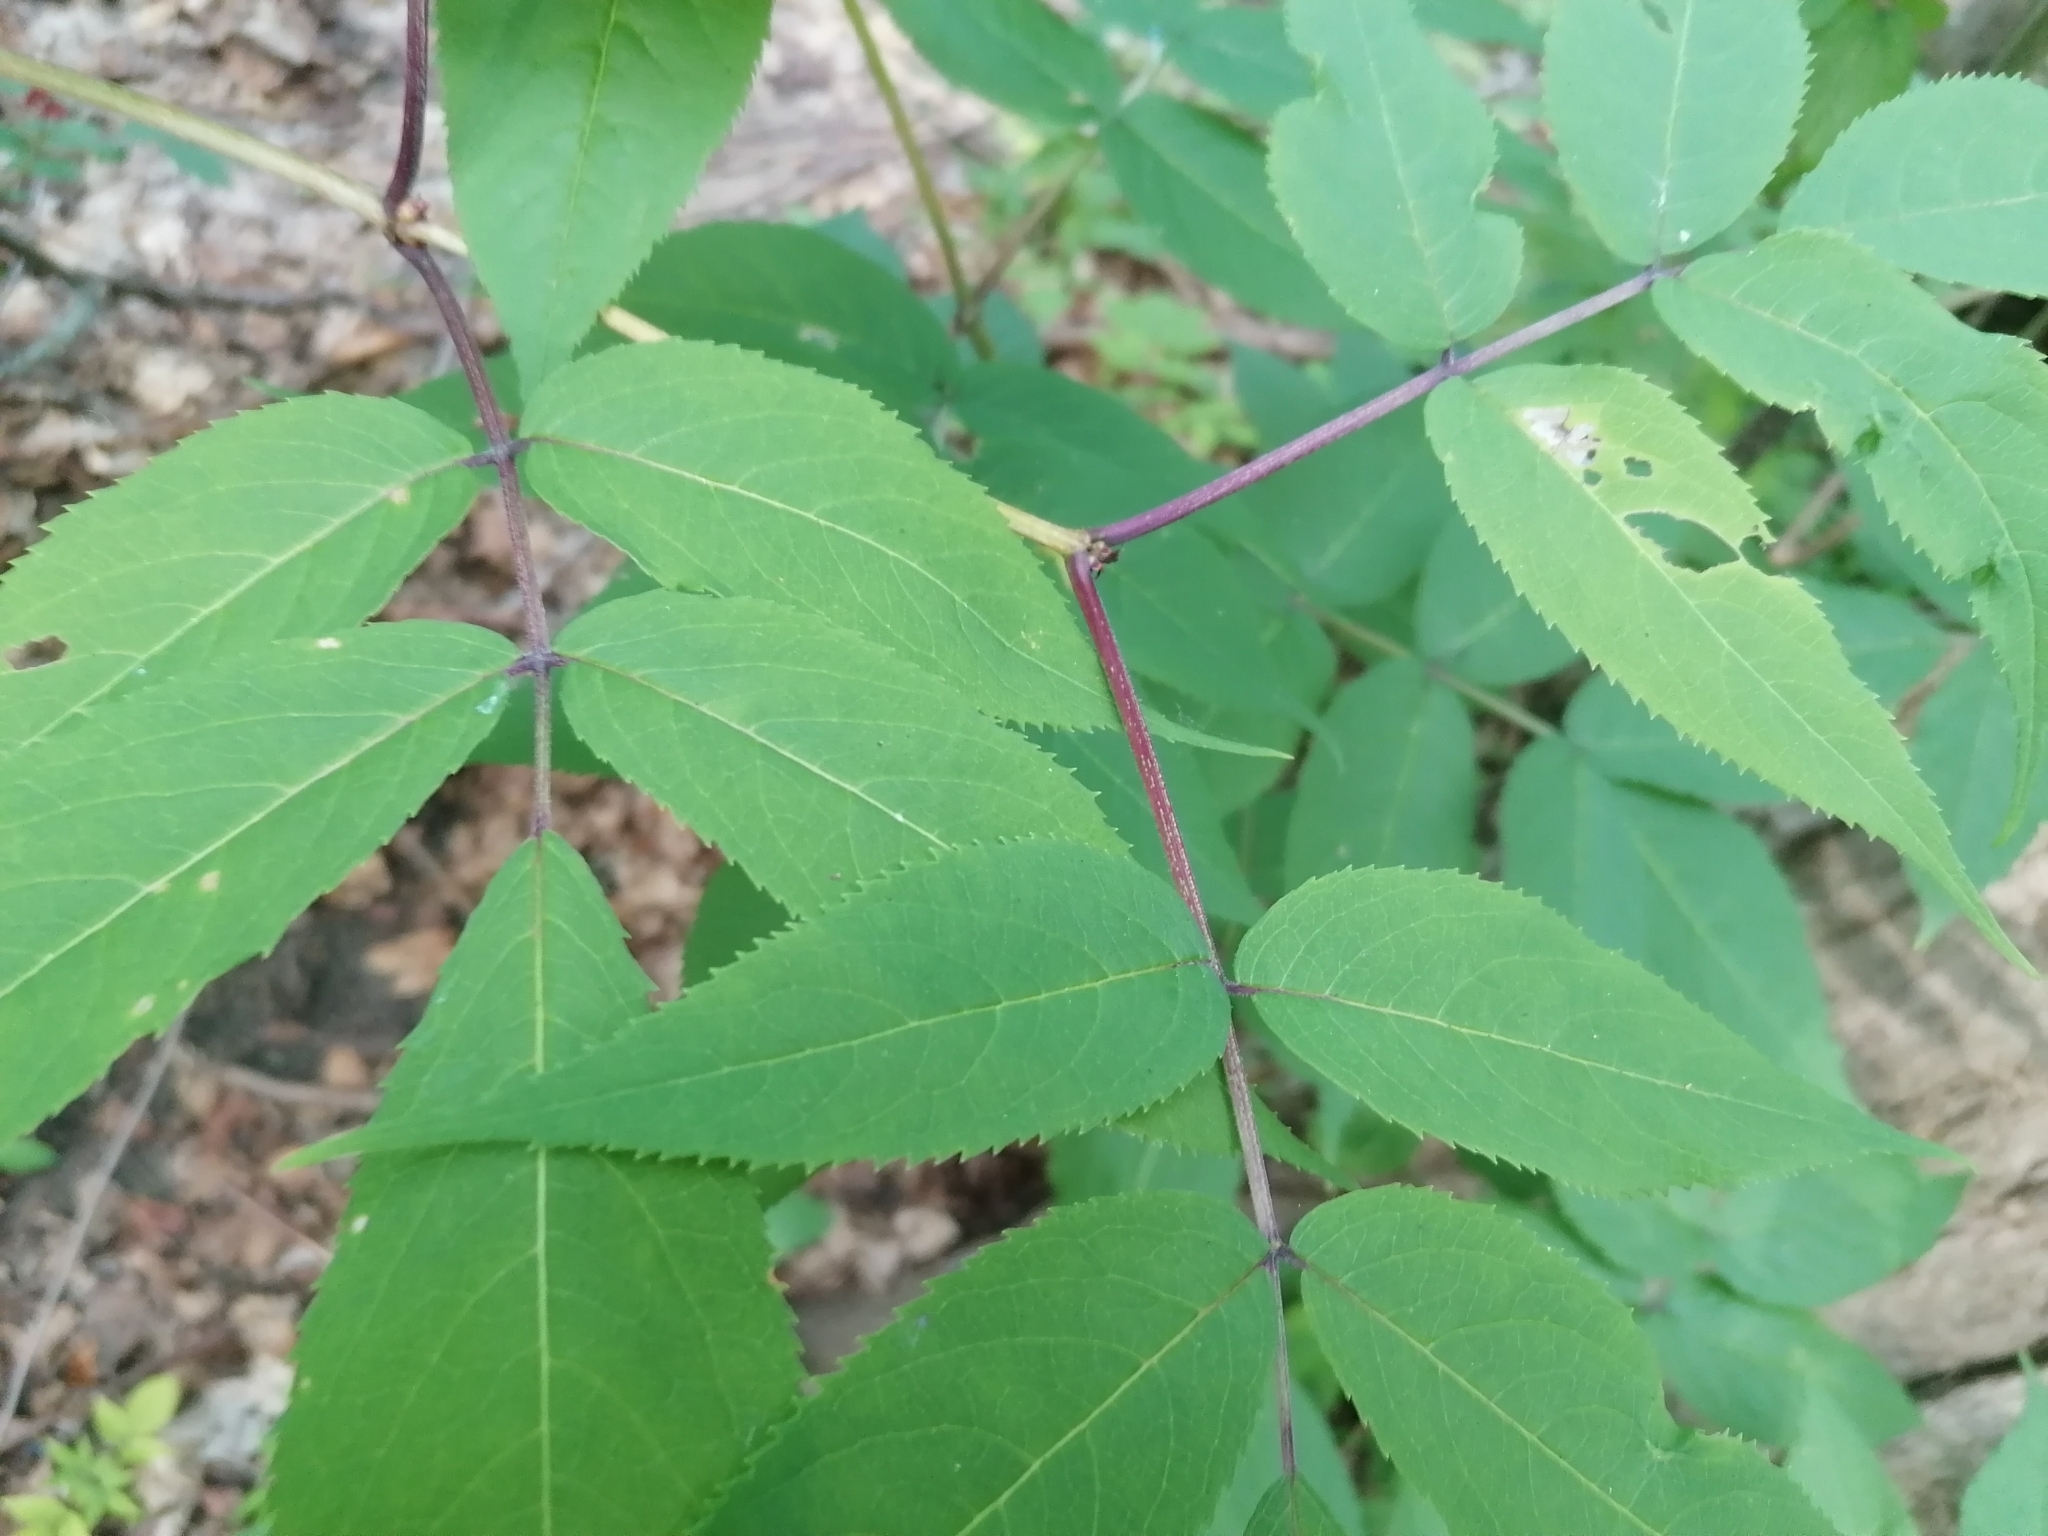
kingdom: Plantae
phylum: Tracheophyta
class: Magnoliopsida
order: Dipsacales
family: Viburnaceae
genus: Sambucus
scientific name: Sambucus racemosa
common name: Red-berried elder
